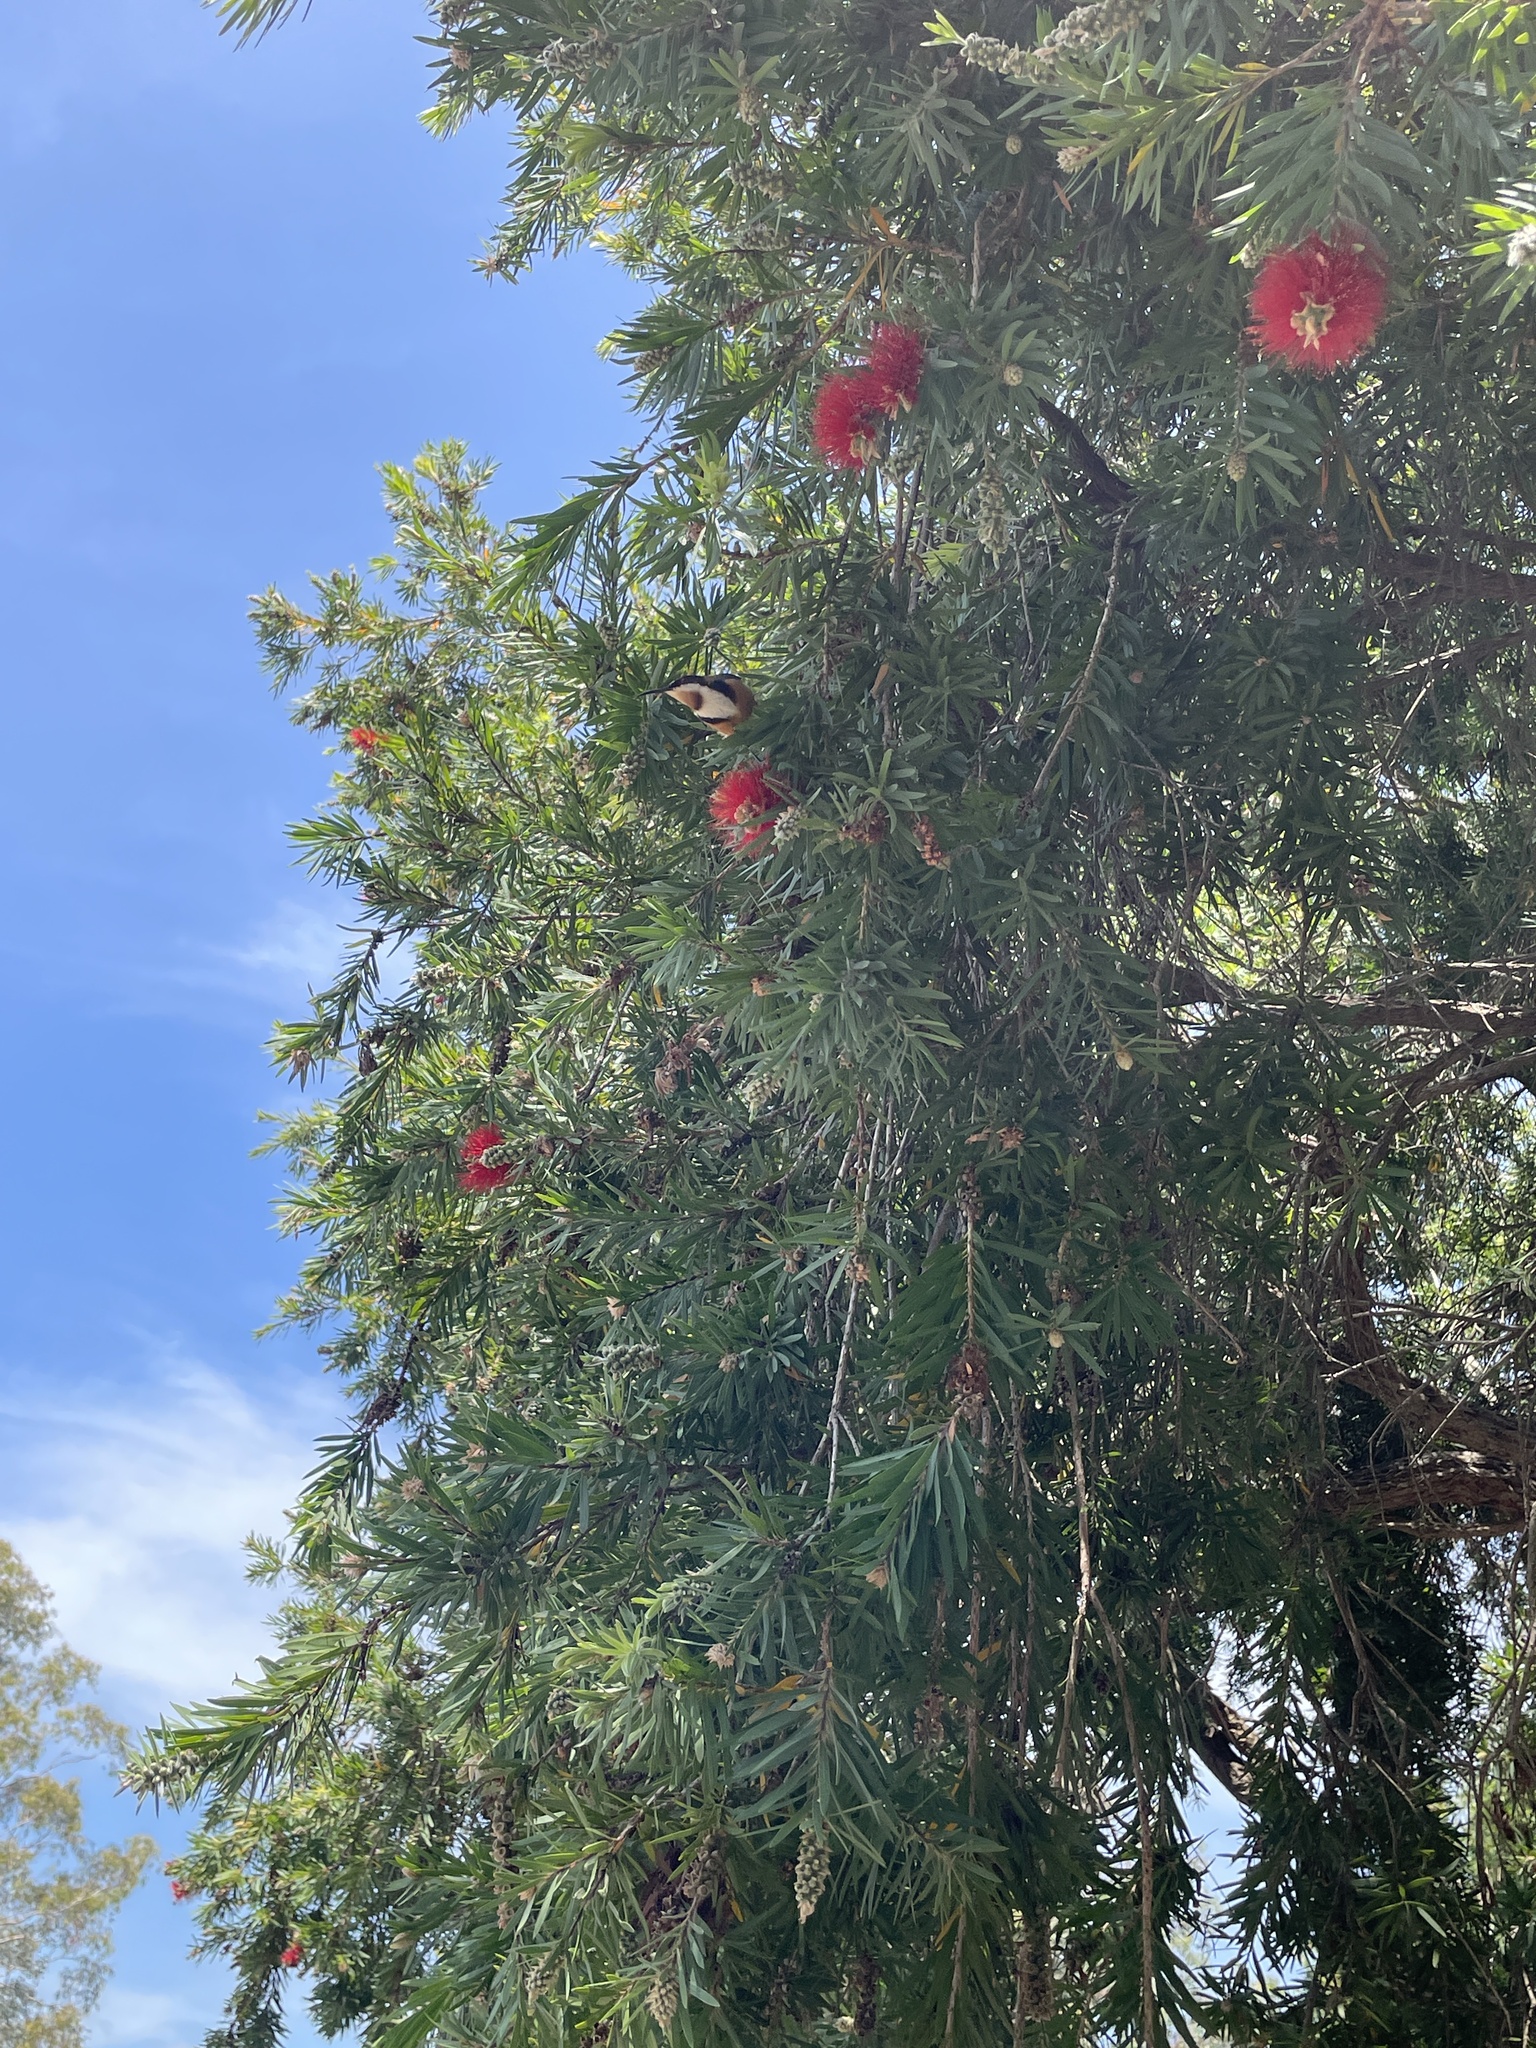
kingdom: Animalia
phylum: Chordata
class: Aves
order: Passeriformes
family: Meliphagidae
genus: Acanthorhynchus
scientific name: Acanthorhynchus tenuirostris
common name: Eastern spinebill
